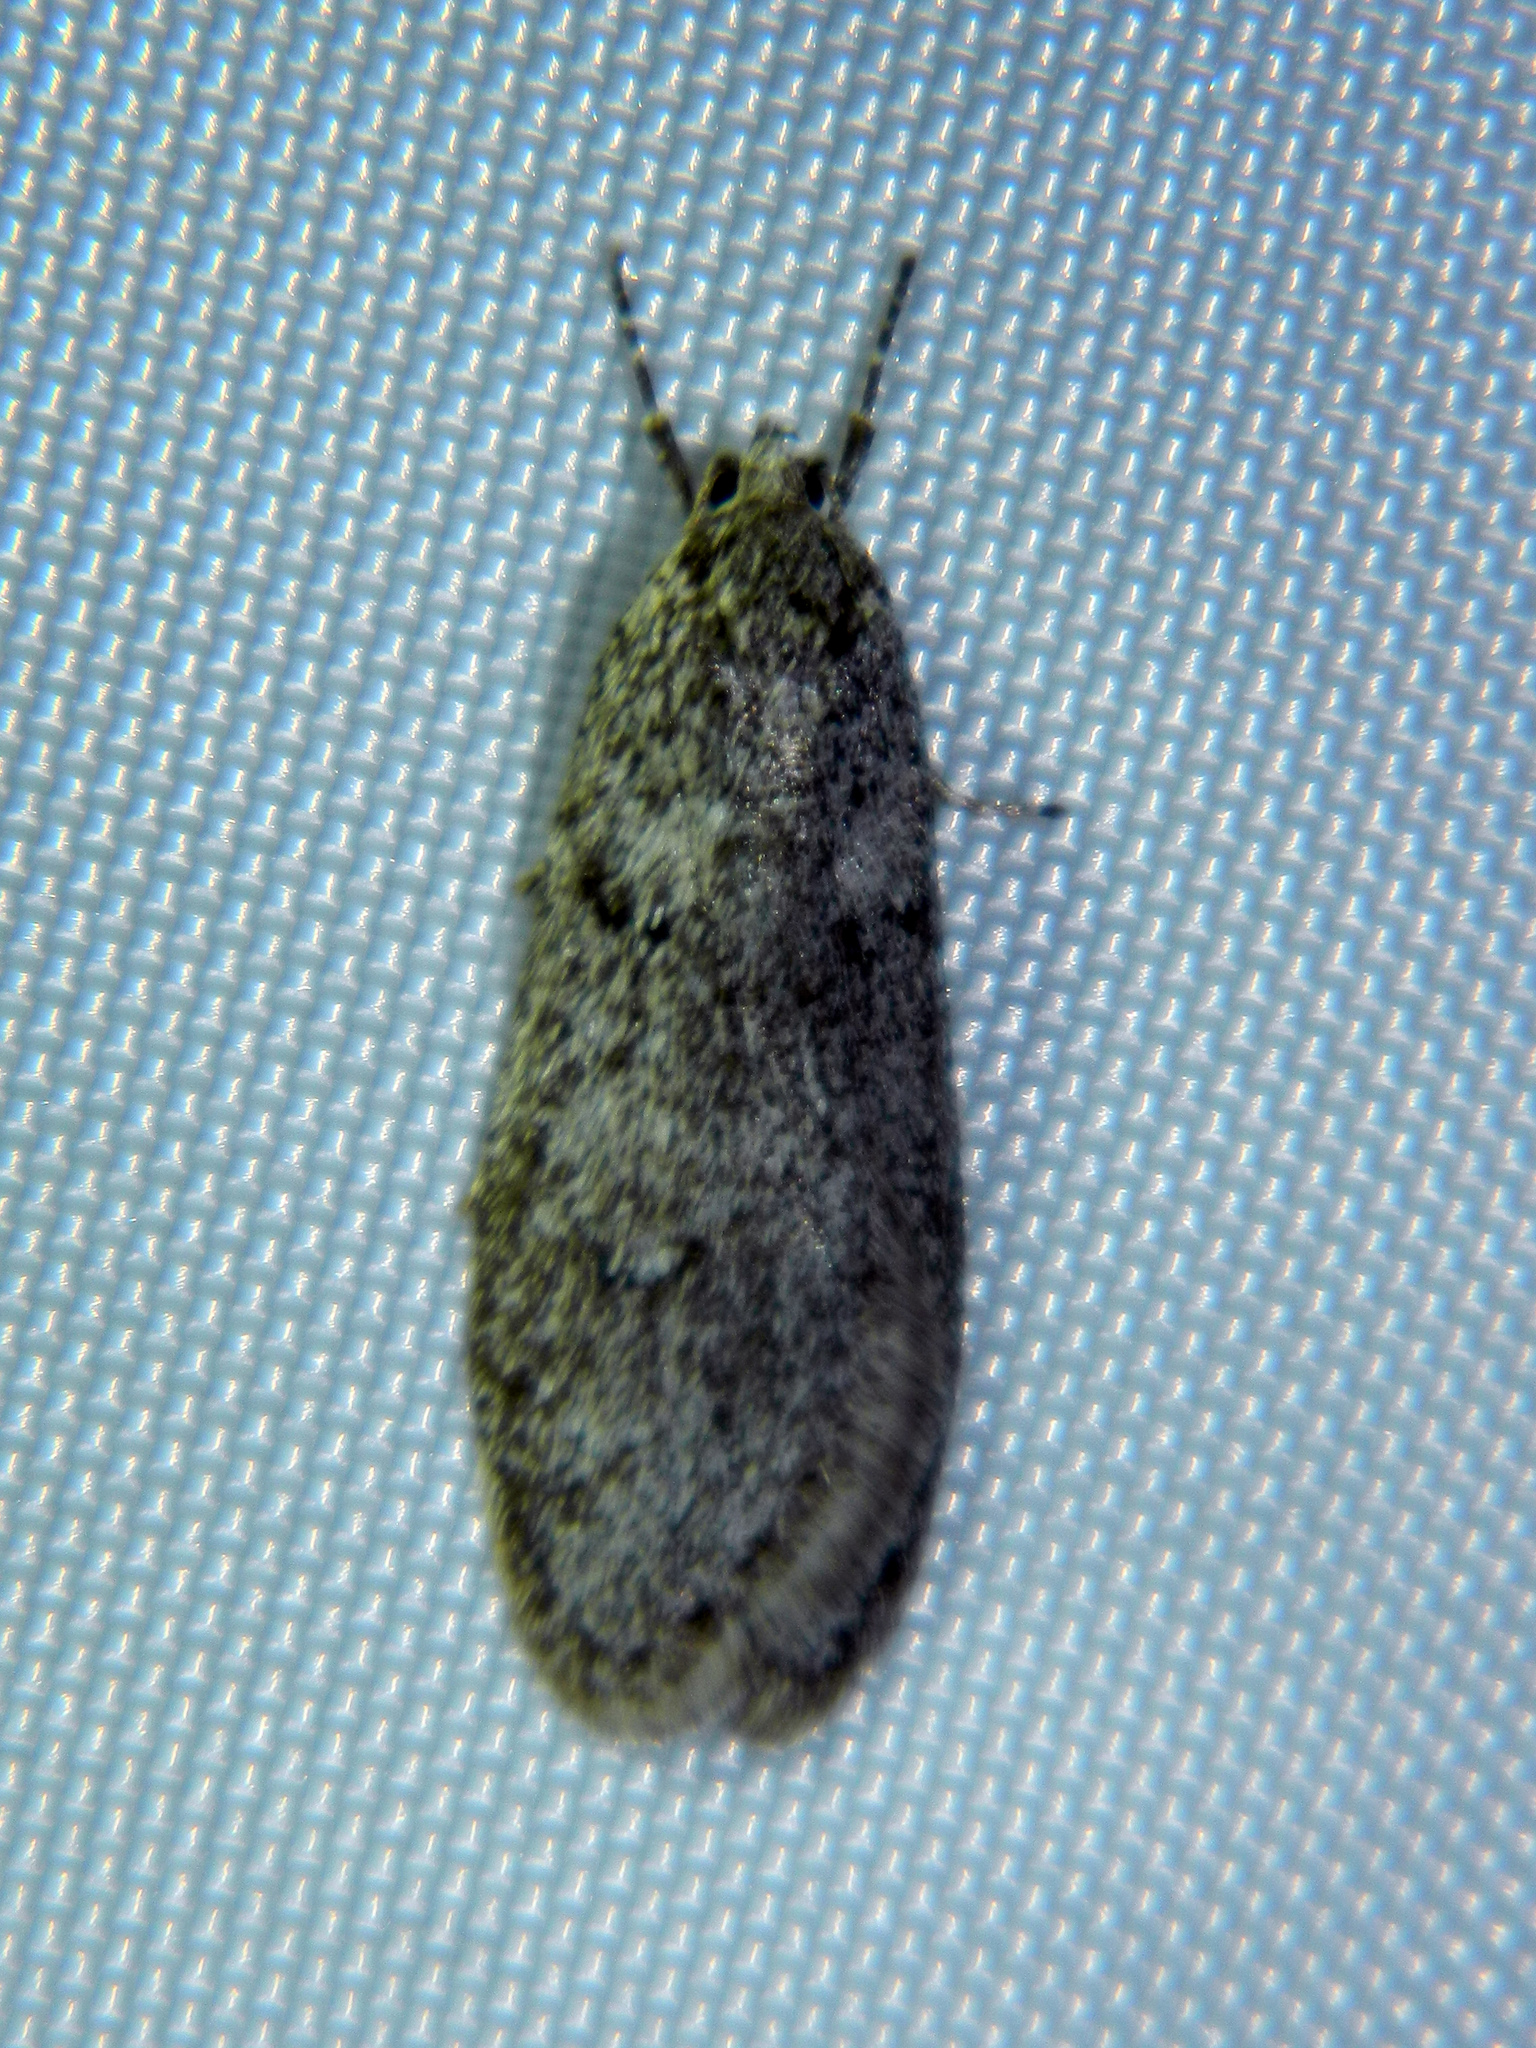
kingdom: Animalia
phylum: Arthropoda
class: Insecta
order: Lepidoptera
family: Depressariidae
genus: Semioscopis
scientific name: Semioscopis inornata
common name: Poplar micromoth
